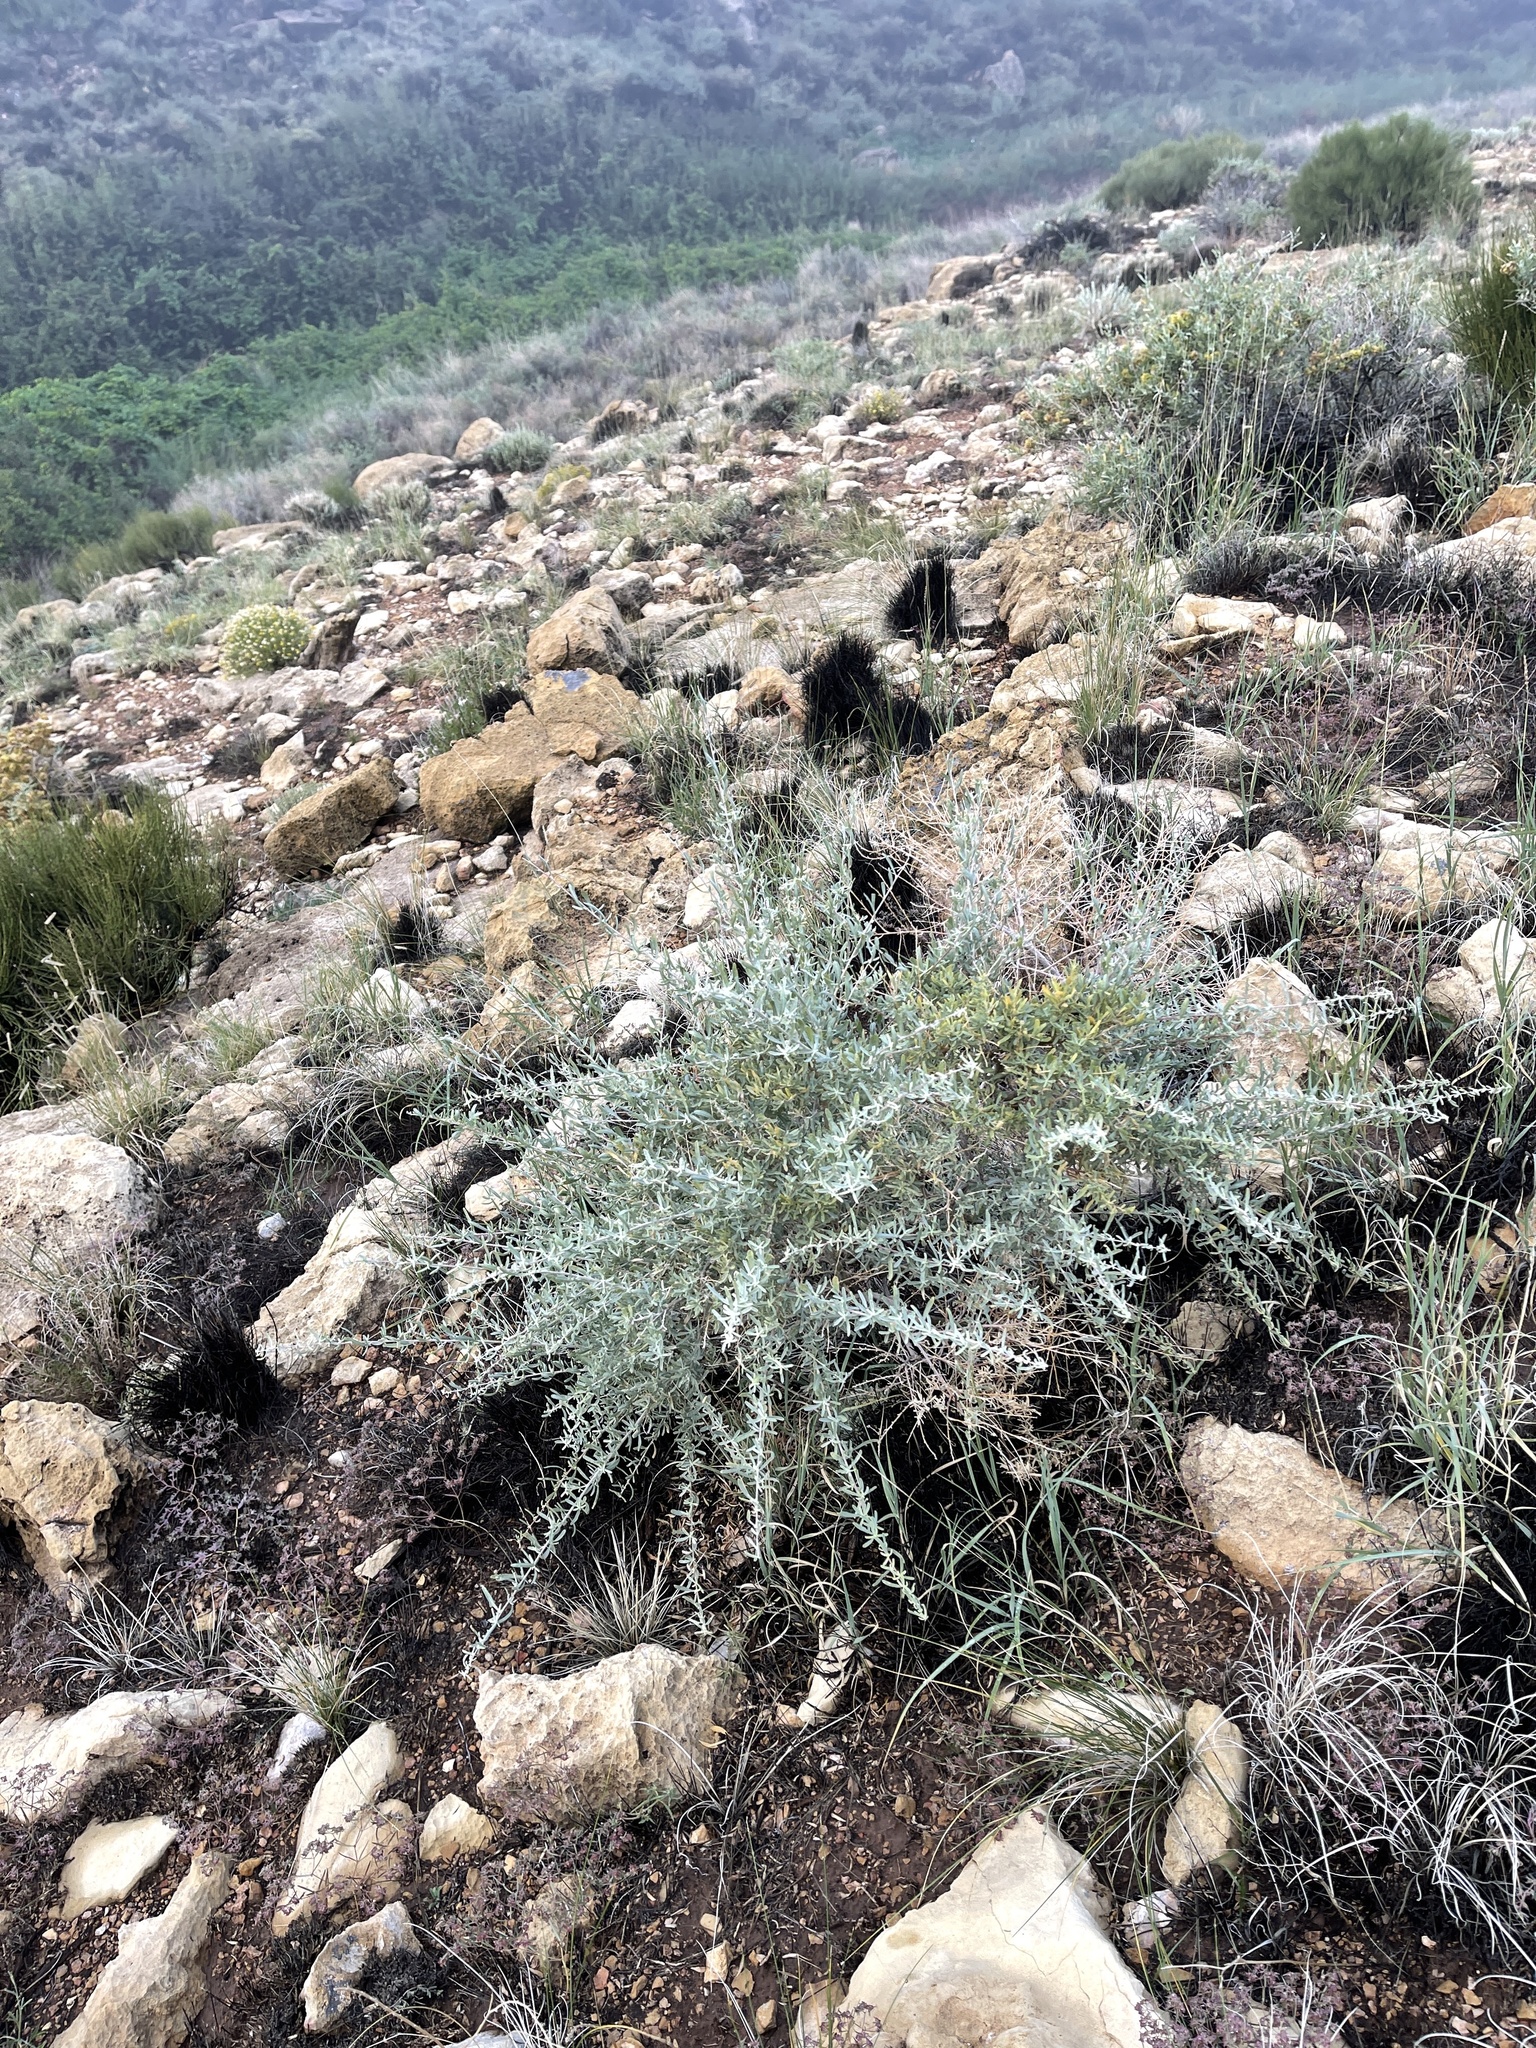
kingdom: Plantae
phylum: Tracheophyta
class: Magnoliopsida
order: Caryophyllales
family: Amaranthaceae
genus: Atriplex
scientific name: Atriplex canescens
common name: Four-wing saltbush
